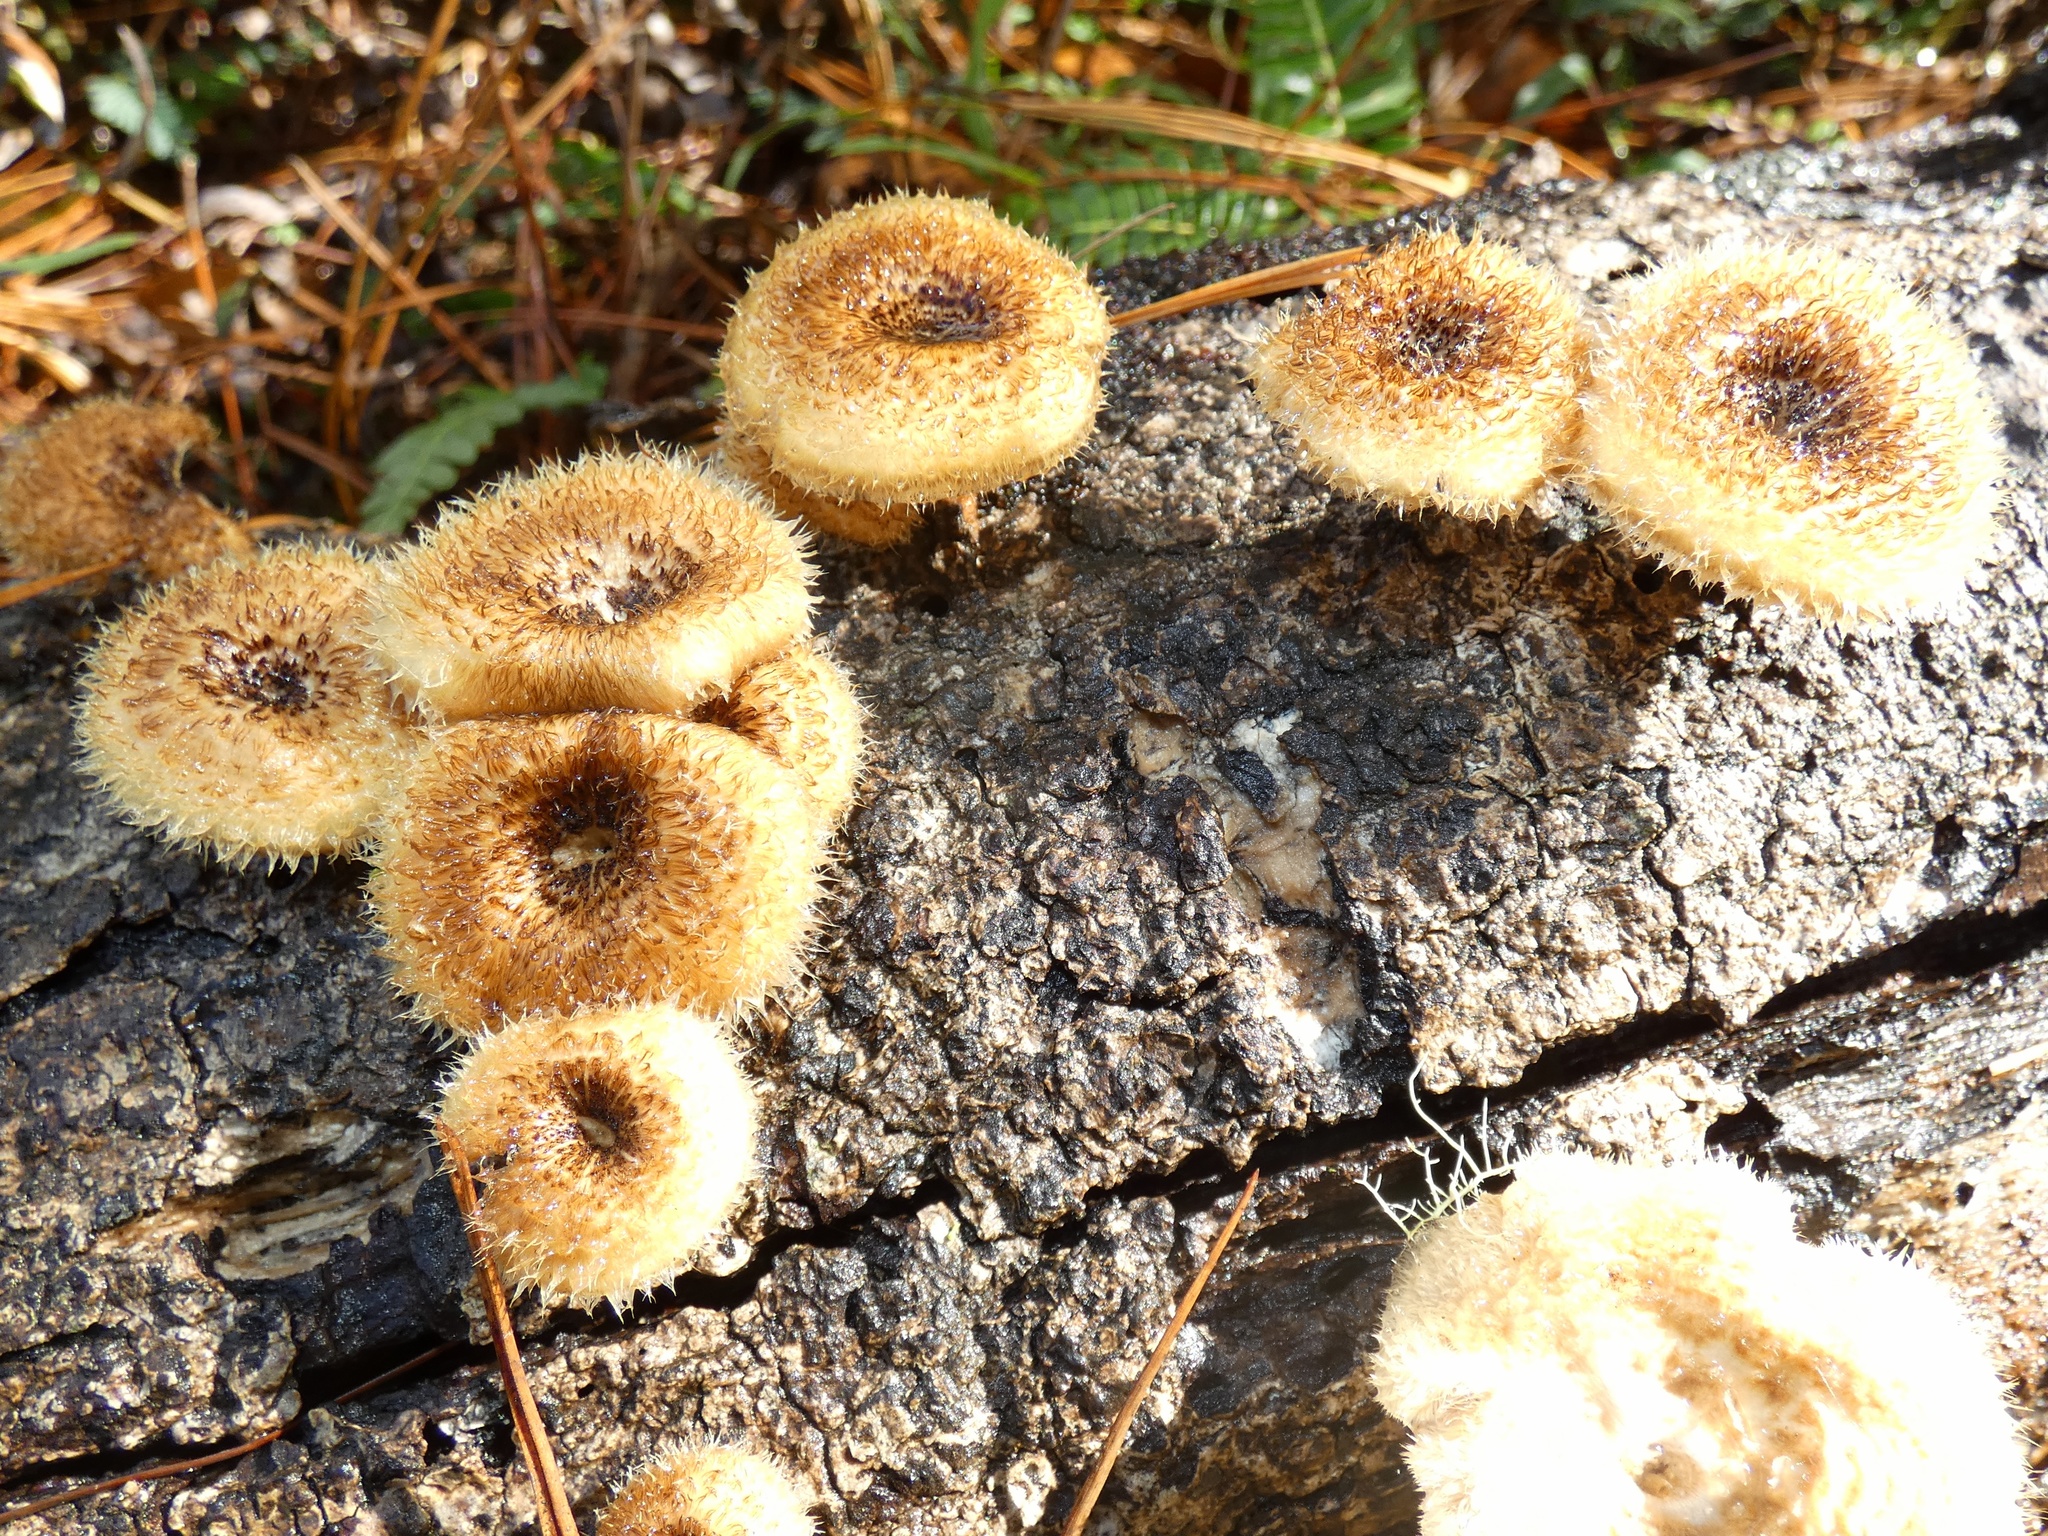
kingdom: Fungi
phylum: Basidiomycota
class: Agaricomycetes
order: Polyporales
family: Polyporaceae
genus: Lentinus
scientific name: Lentinus crinitus
